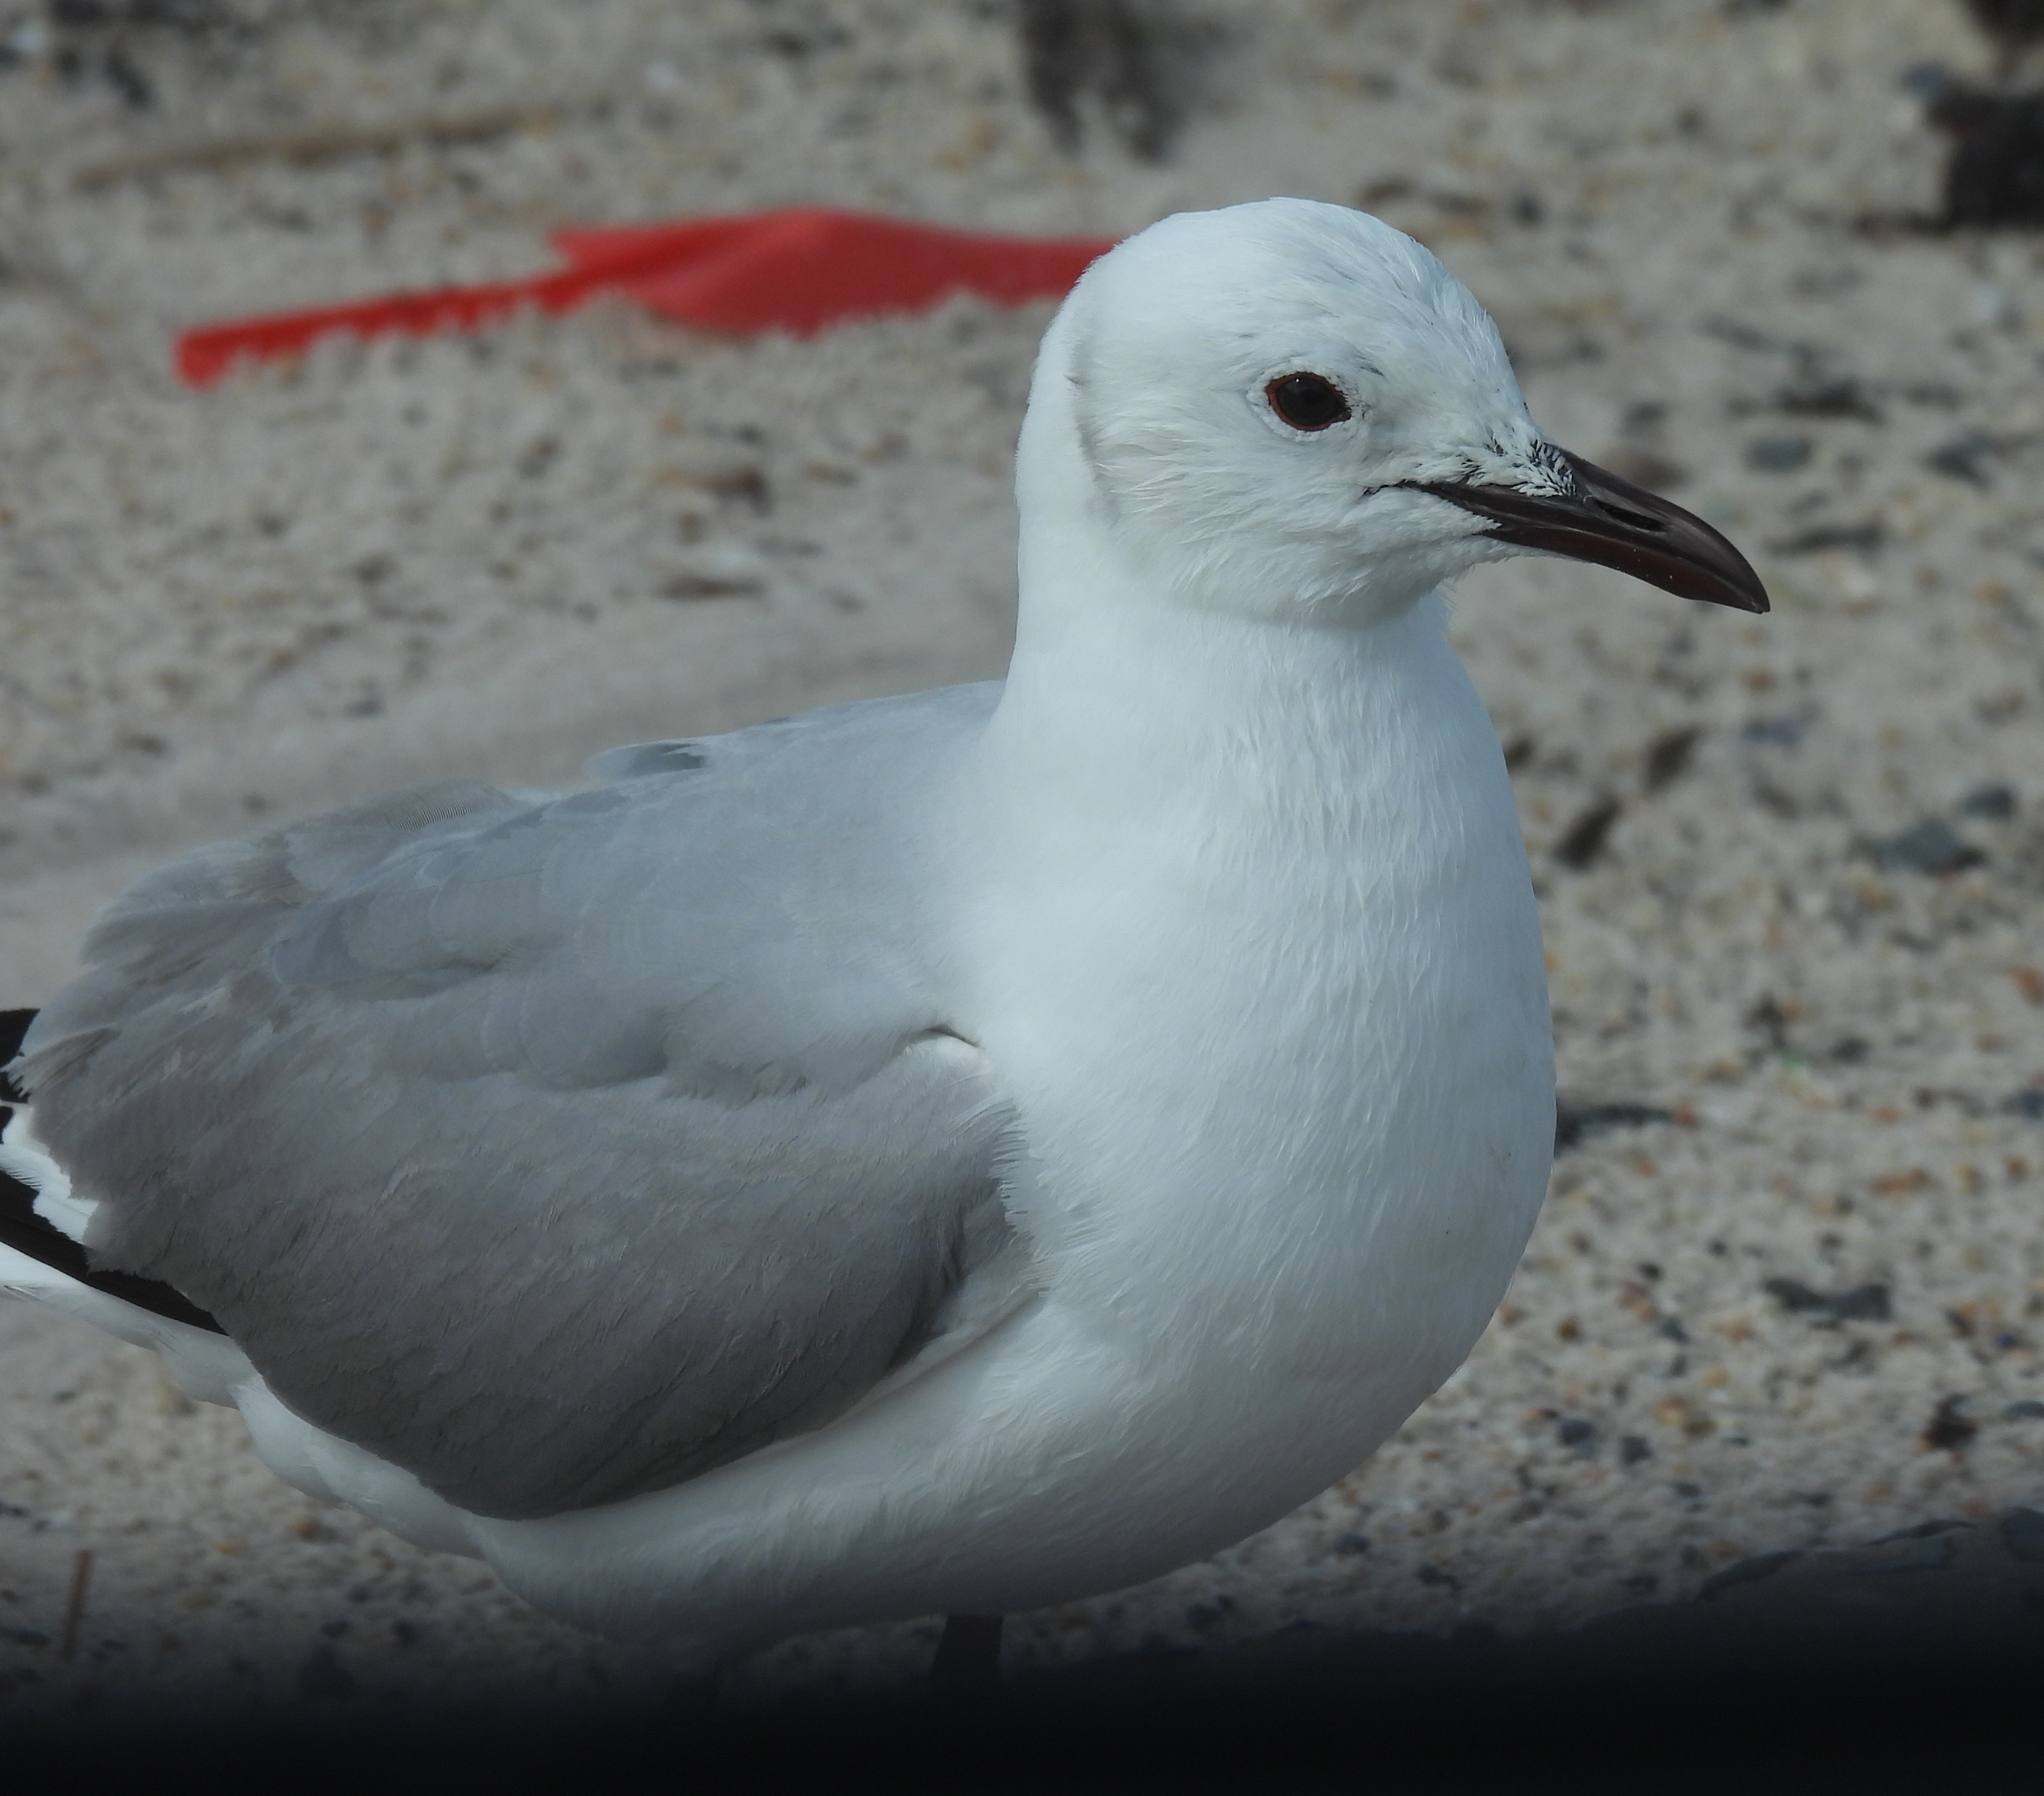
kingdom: Animalia
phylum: Chordata
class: Aves
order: Charadriiformes
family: Laridae
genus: Chroicocephalus
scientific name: Chroicocephalus hartlaubii
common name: Hartlaub's gull
